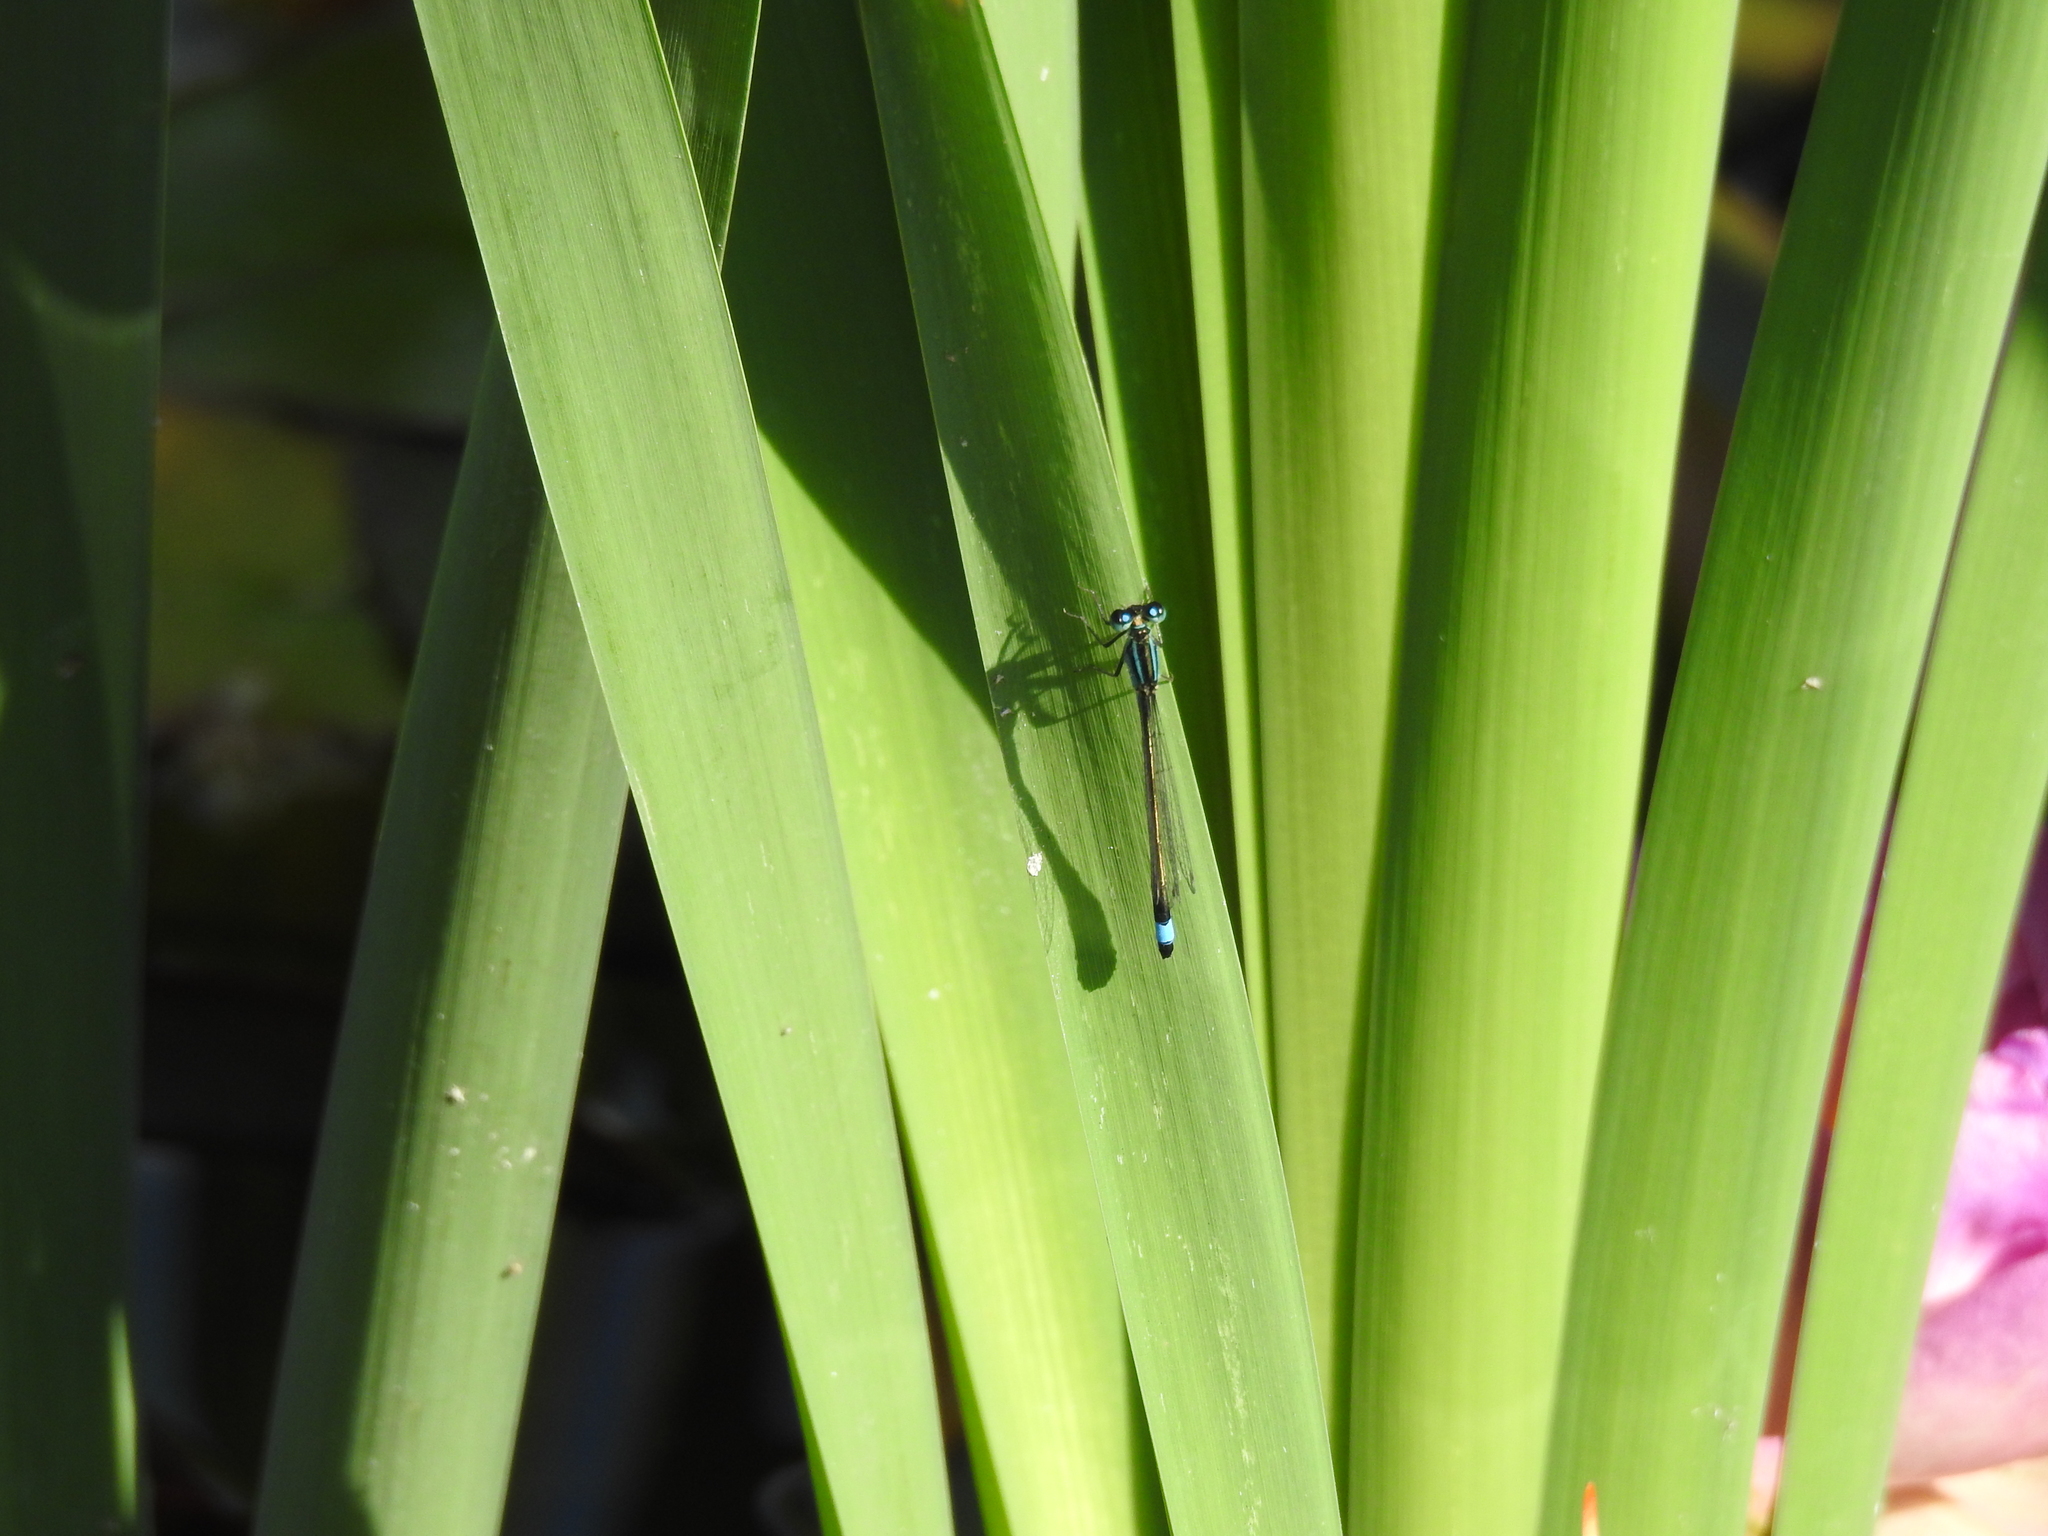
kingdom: Animalia
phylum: Arthropoda
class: Insecta
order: Odonata
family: Coenagrionidae
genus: Ischnura
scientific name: Ischnura elegans
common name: Blue-tailed damselfly
